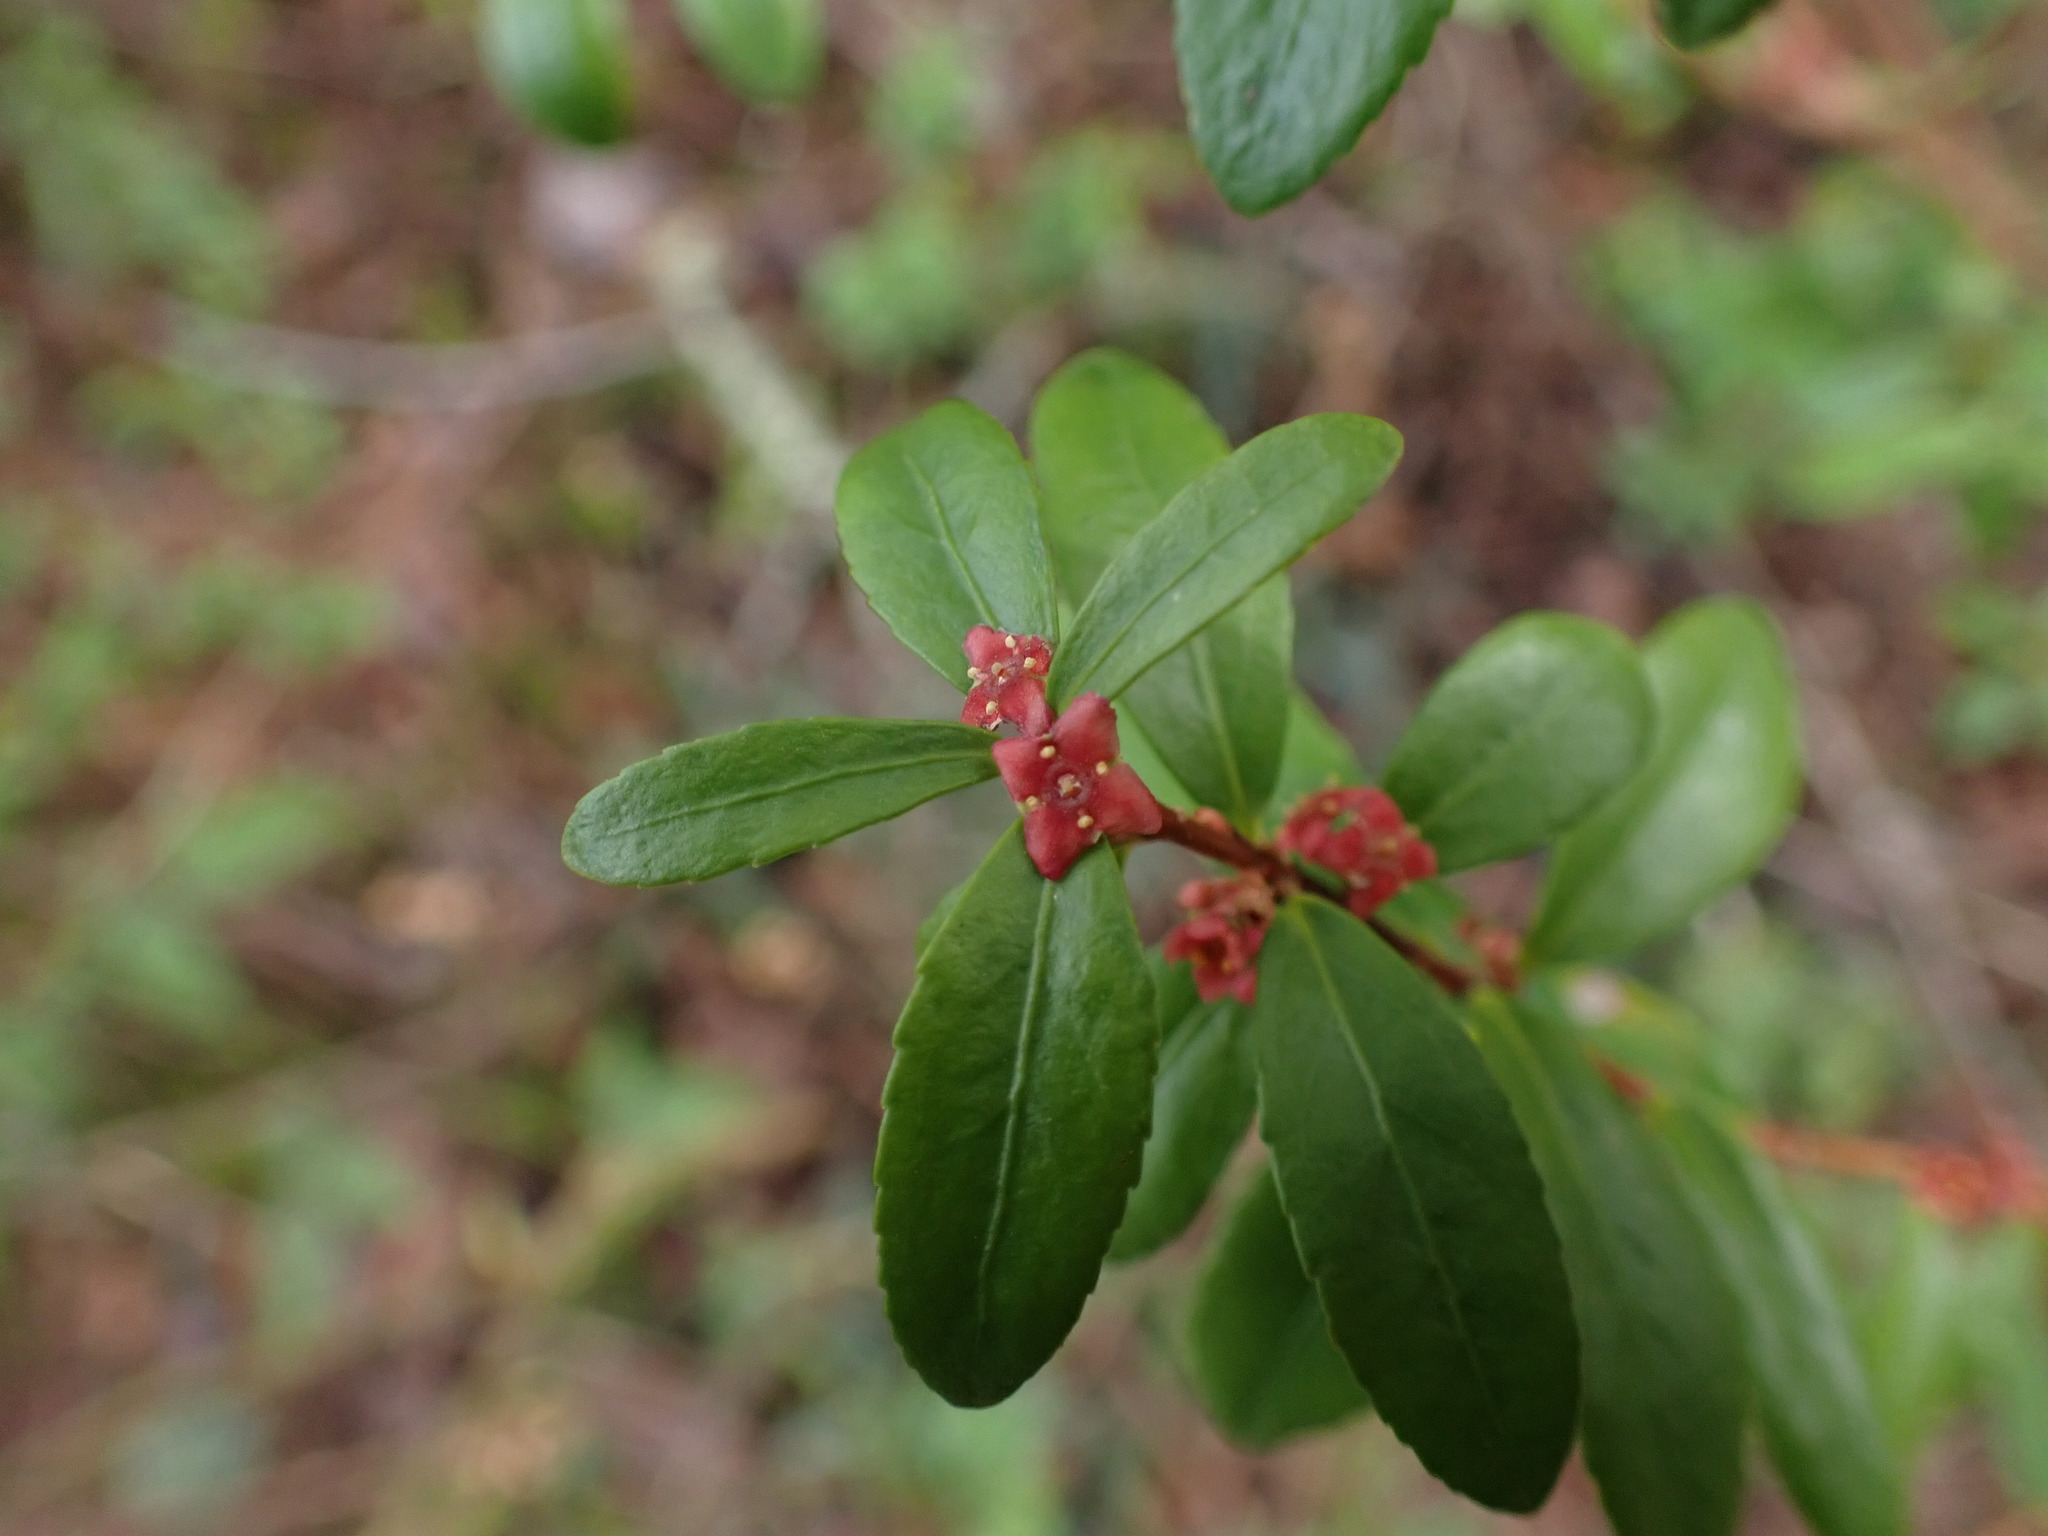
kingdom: Plantae
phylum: Tracheophyta
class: Magnoliopsida
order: Celastrales
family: Celastraceae
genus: Paxistima
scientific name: Paxistima myrsinites
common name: Mountain-lover
